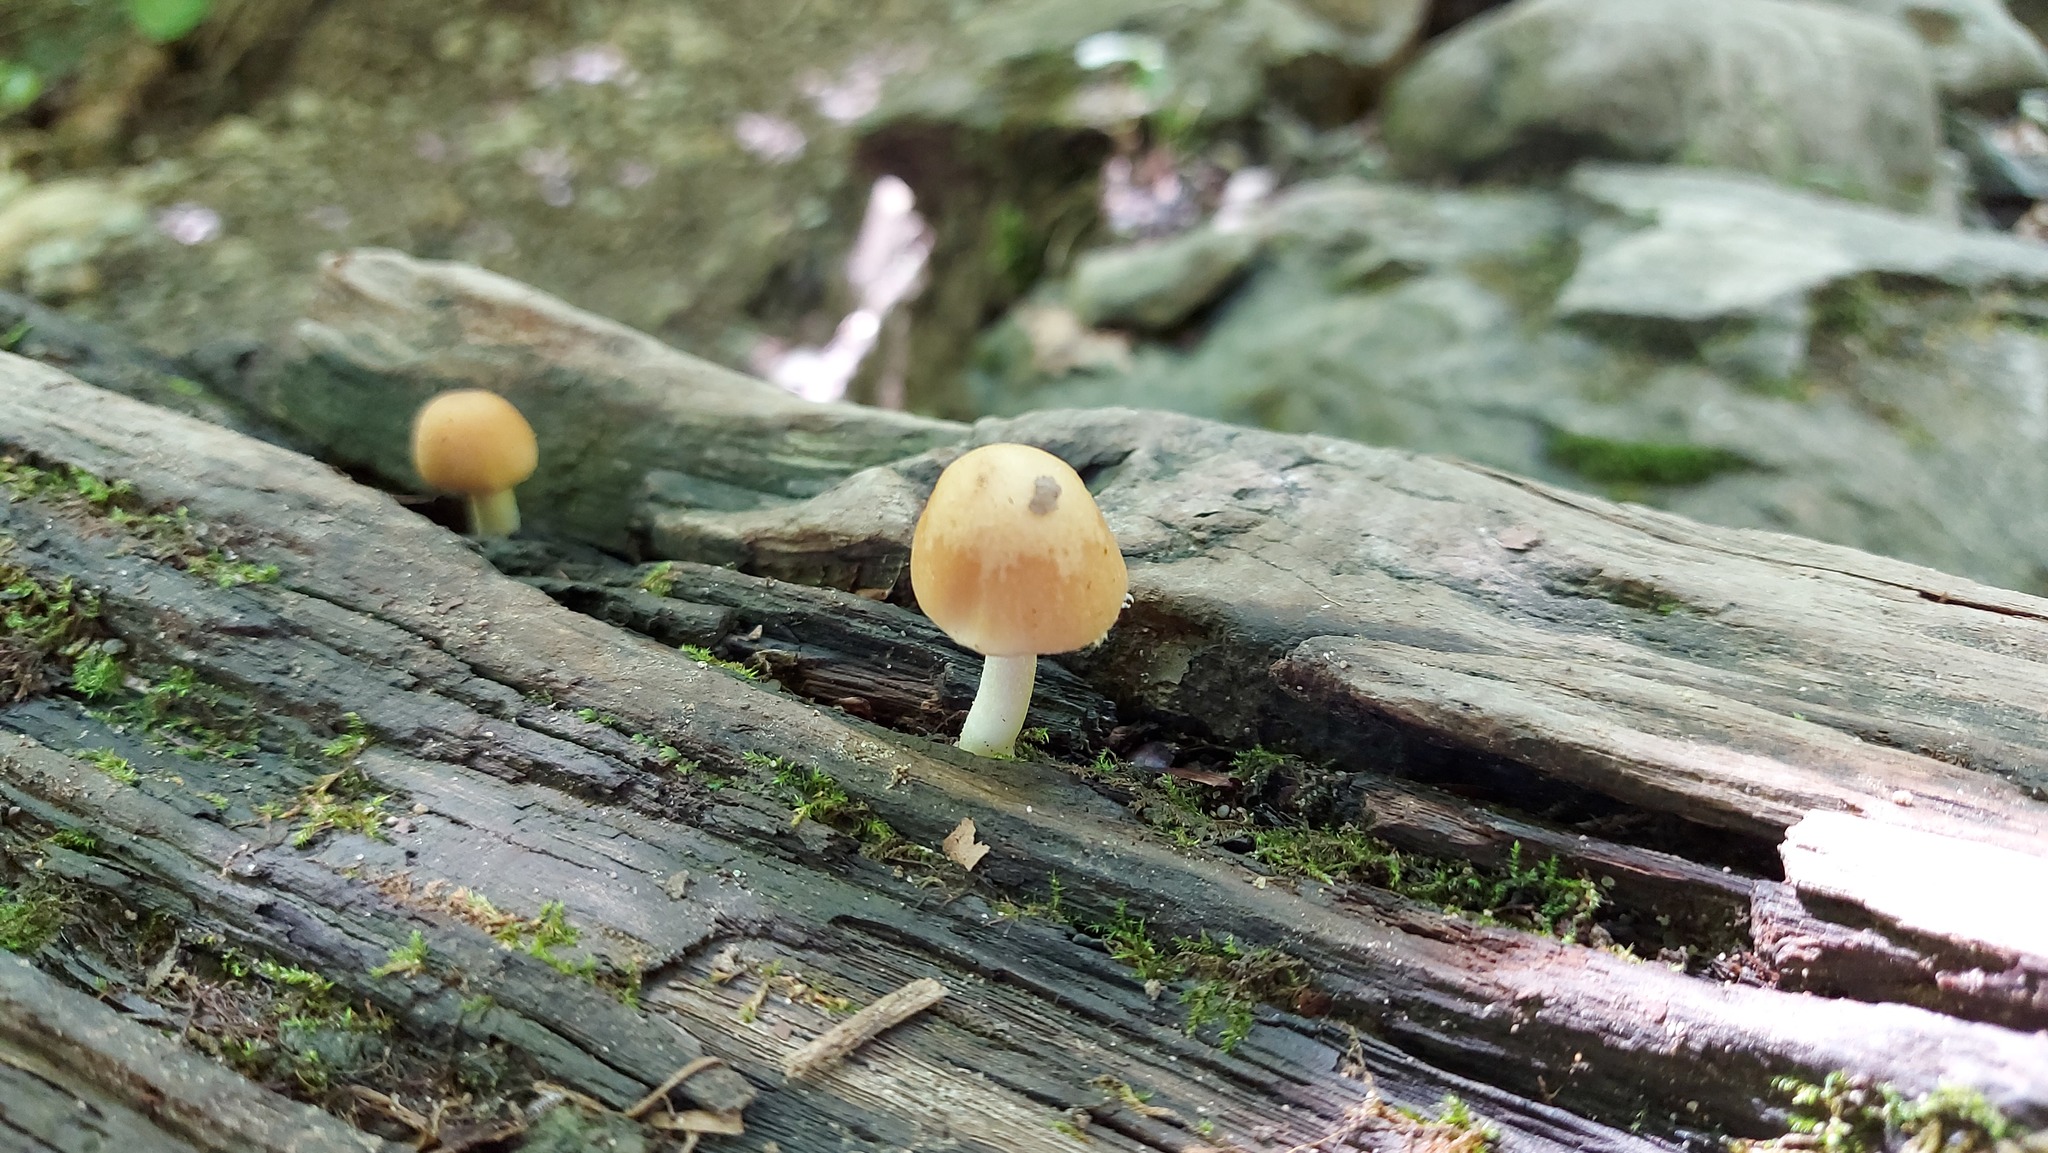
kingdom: Fungi
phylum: Basidiomycota
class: Agaricomycetes
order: Agaricales
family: Psathyrellaceae
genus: Candolleomyces
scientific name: Candolleomyces candolleanus
